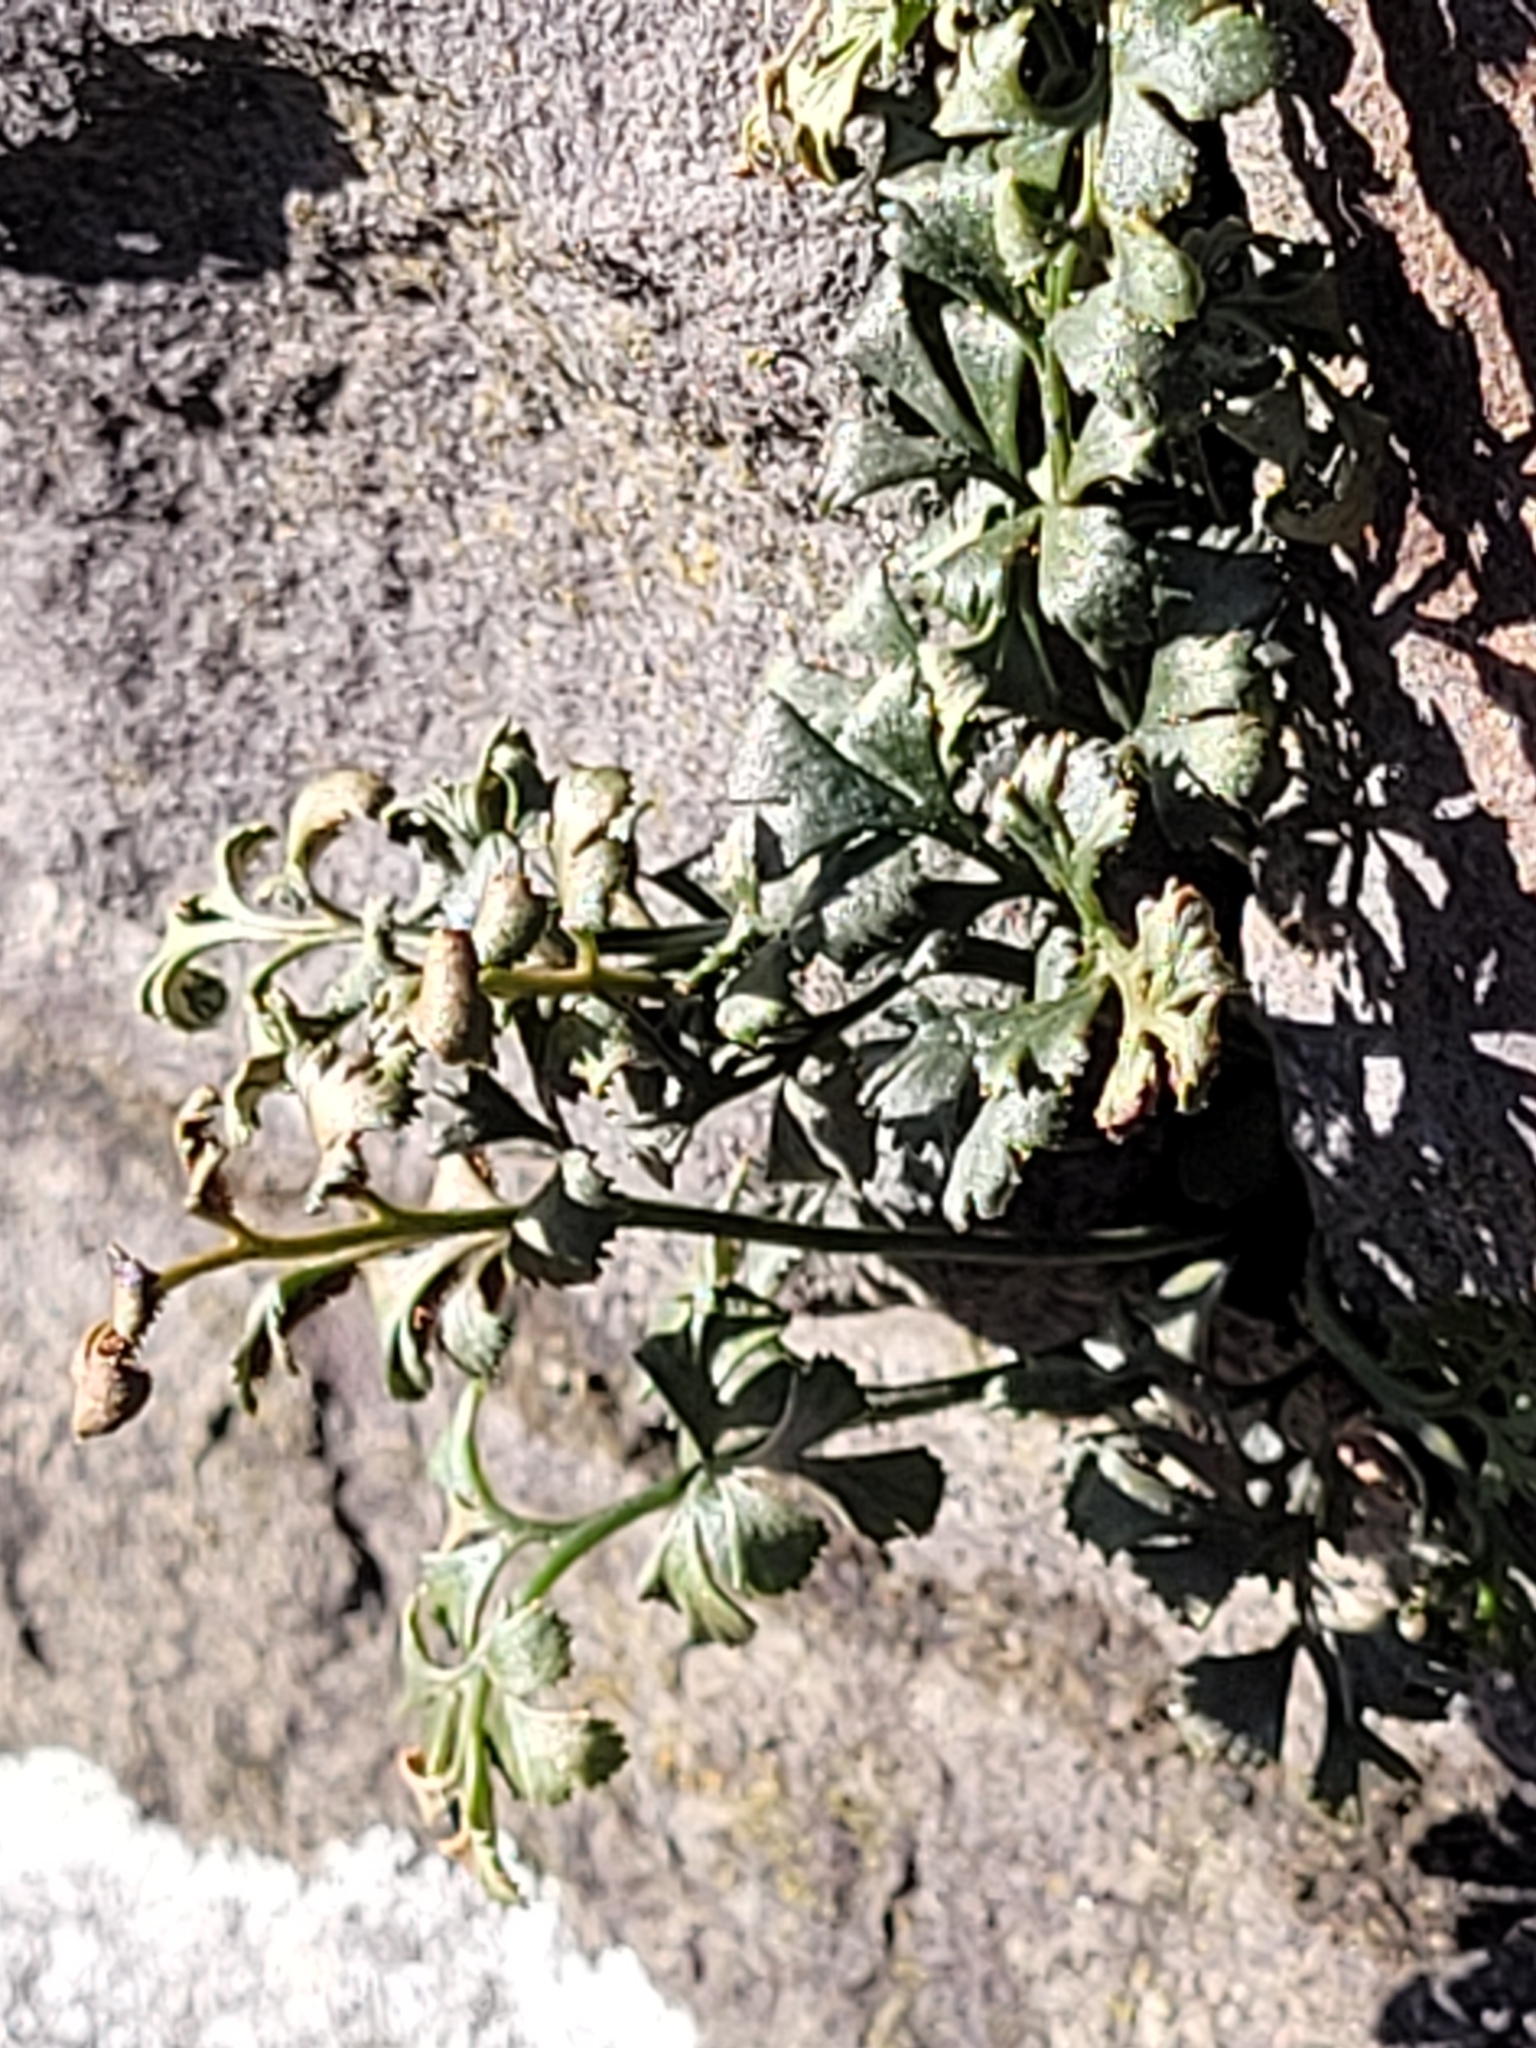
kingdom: Plantae
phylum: Tracheophyta
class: Polypodiopsida
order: Polypodiales
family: Aspleniaceae
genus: Asplenium
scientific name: Asplenium ruta-muraria
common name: Wall-rue
